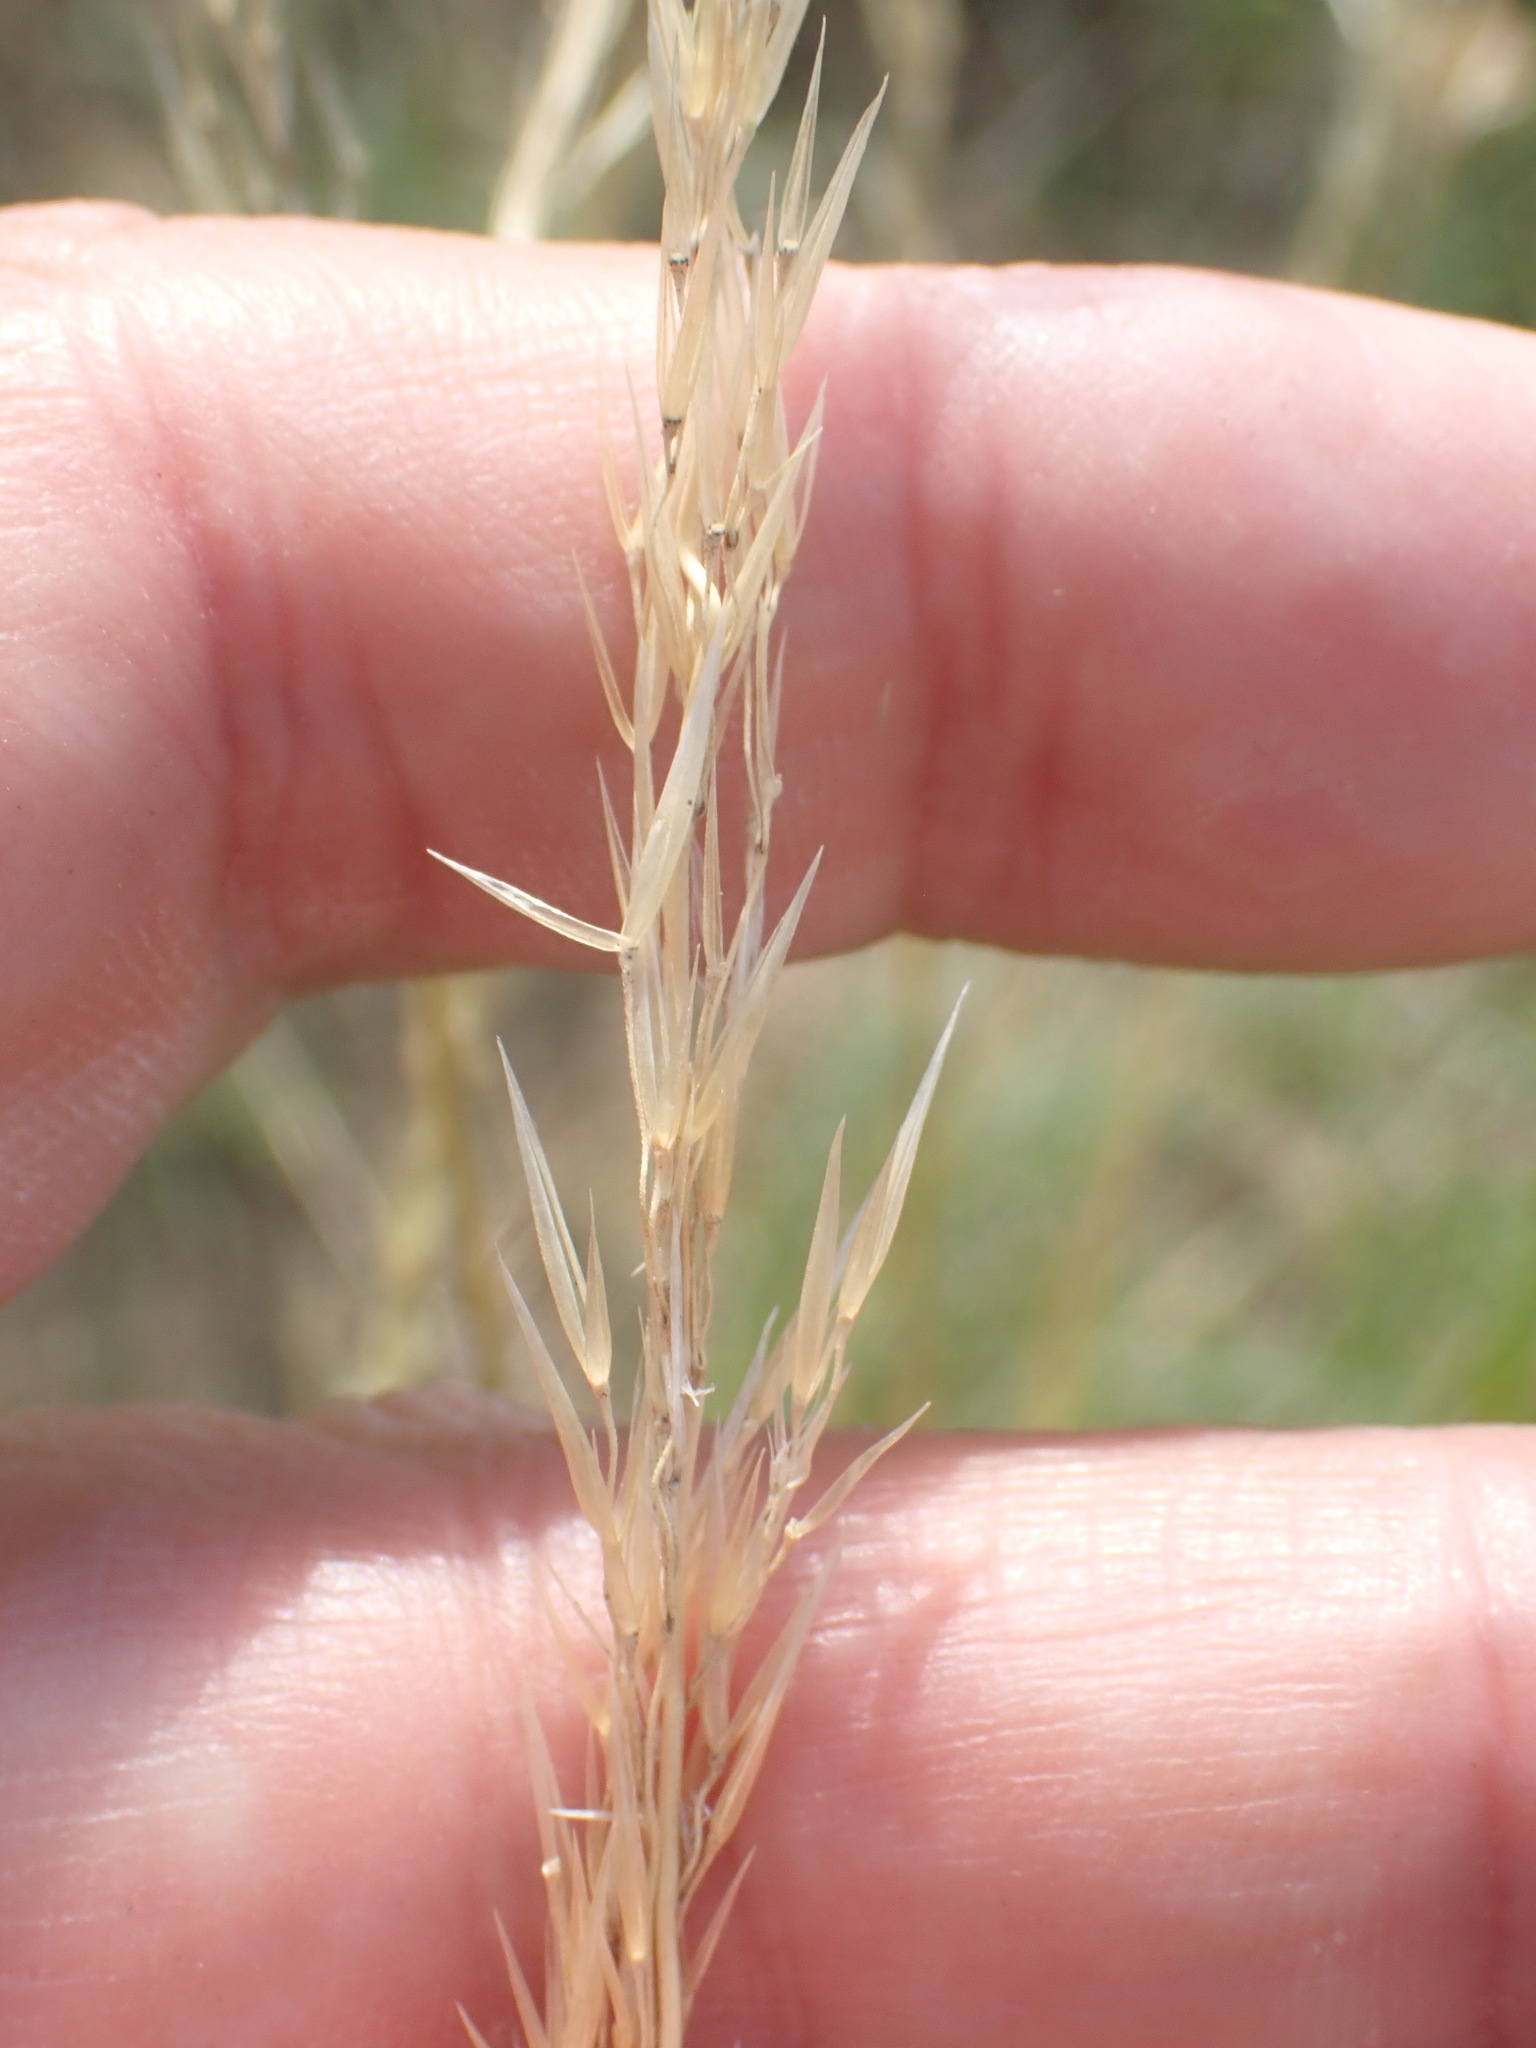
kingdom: Plantae
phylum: Tracheophyta
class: Liliopsida
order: Poales
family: Poaceae
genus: Arrhenatherum
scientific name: Arrhenatherum elatius
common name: Tall oatgrass
